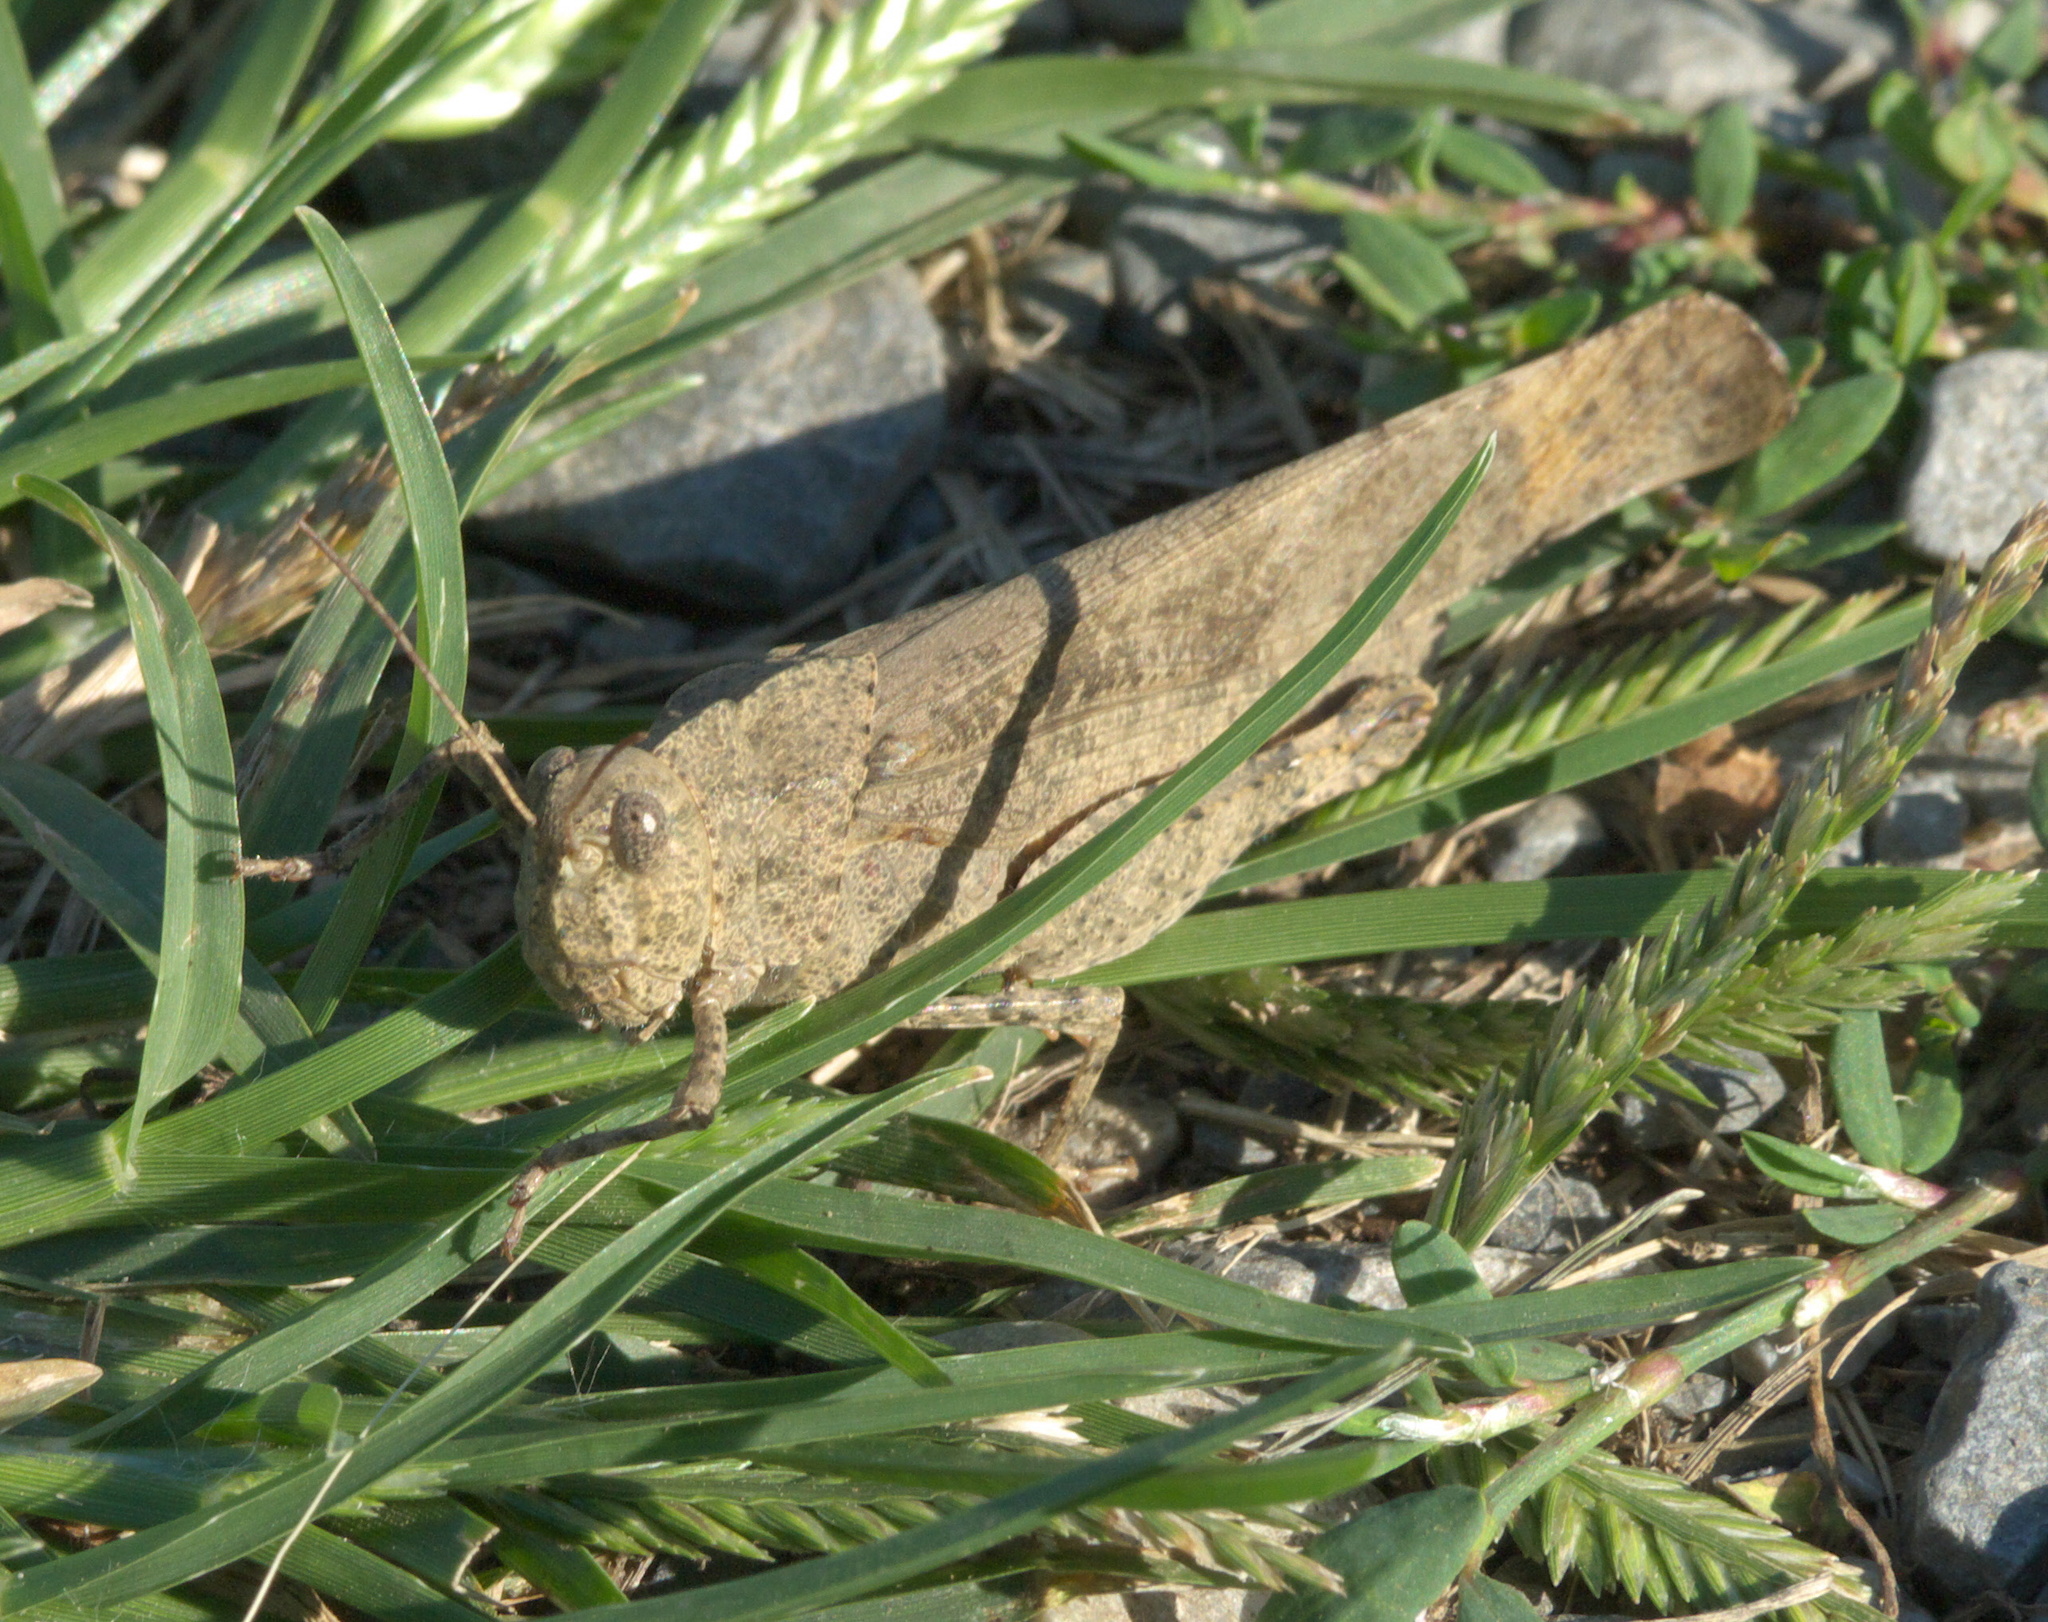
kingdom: Animalia
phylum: Arthropoda
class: Insecta
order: Orthoptera
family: Acrididae
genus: Dissosteira
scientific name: Dissosteira carolina
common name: Carolina grasshopper
